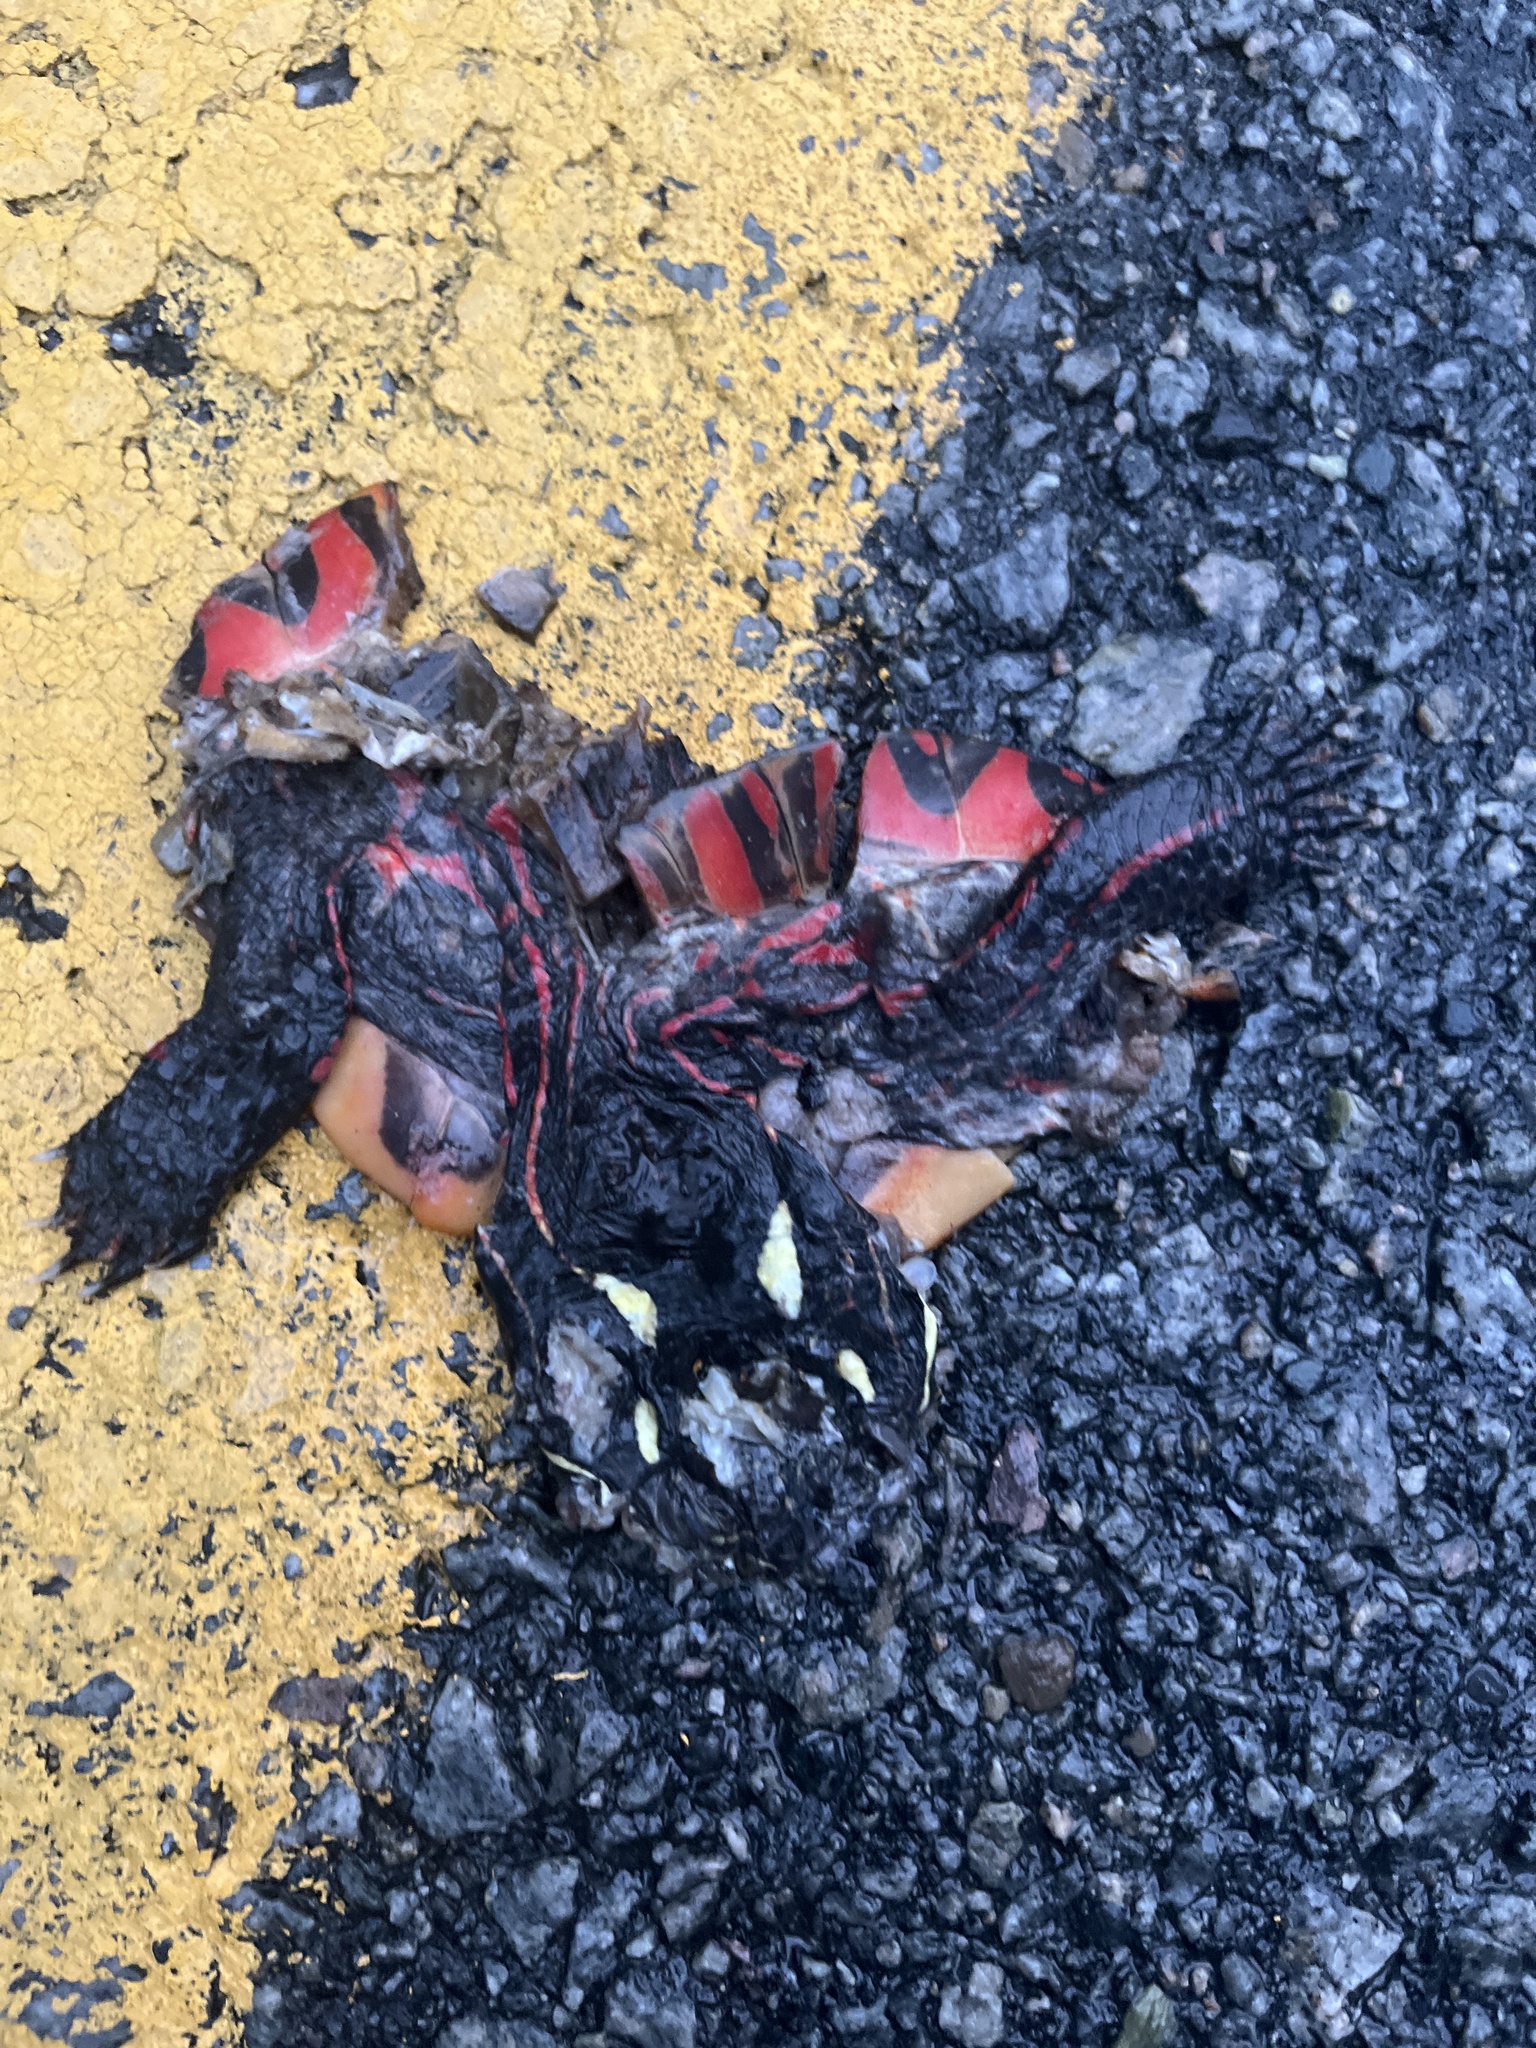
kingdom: Animalia
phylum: Chordata
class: Testudines
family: Emydidae
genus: Chrysemys
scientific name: Chrysemys picta
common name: Painted turtle
